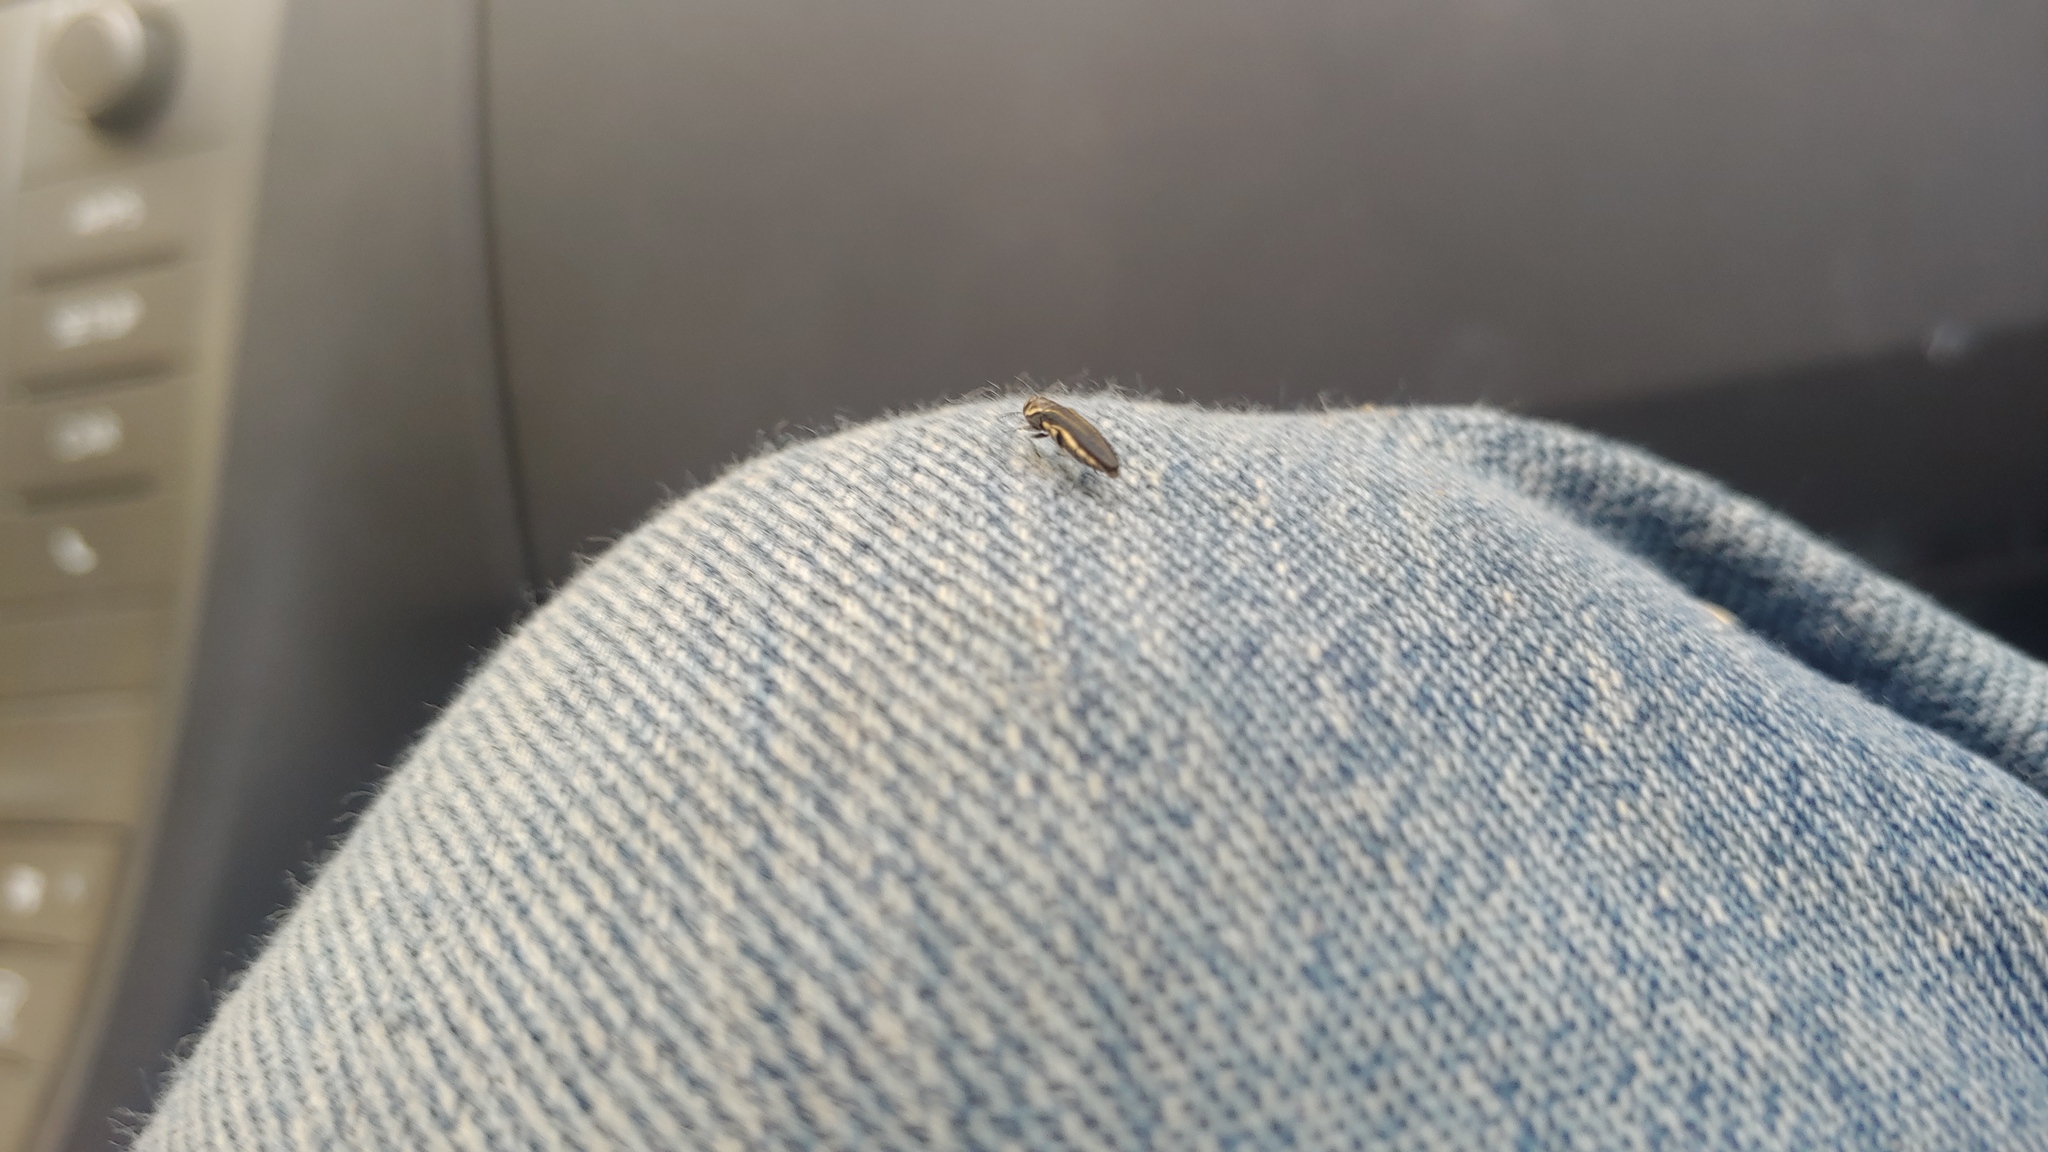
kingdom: Animalia
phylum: Arthropoda
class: Insecta
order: Coleoptera
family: Buprestidae
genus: Agrilus
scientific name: Agrilus bilineatus
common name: Two-lined chestnut borer
